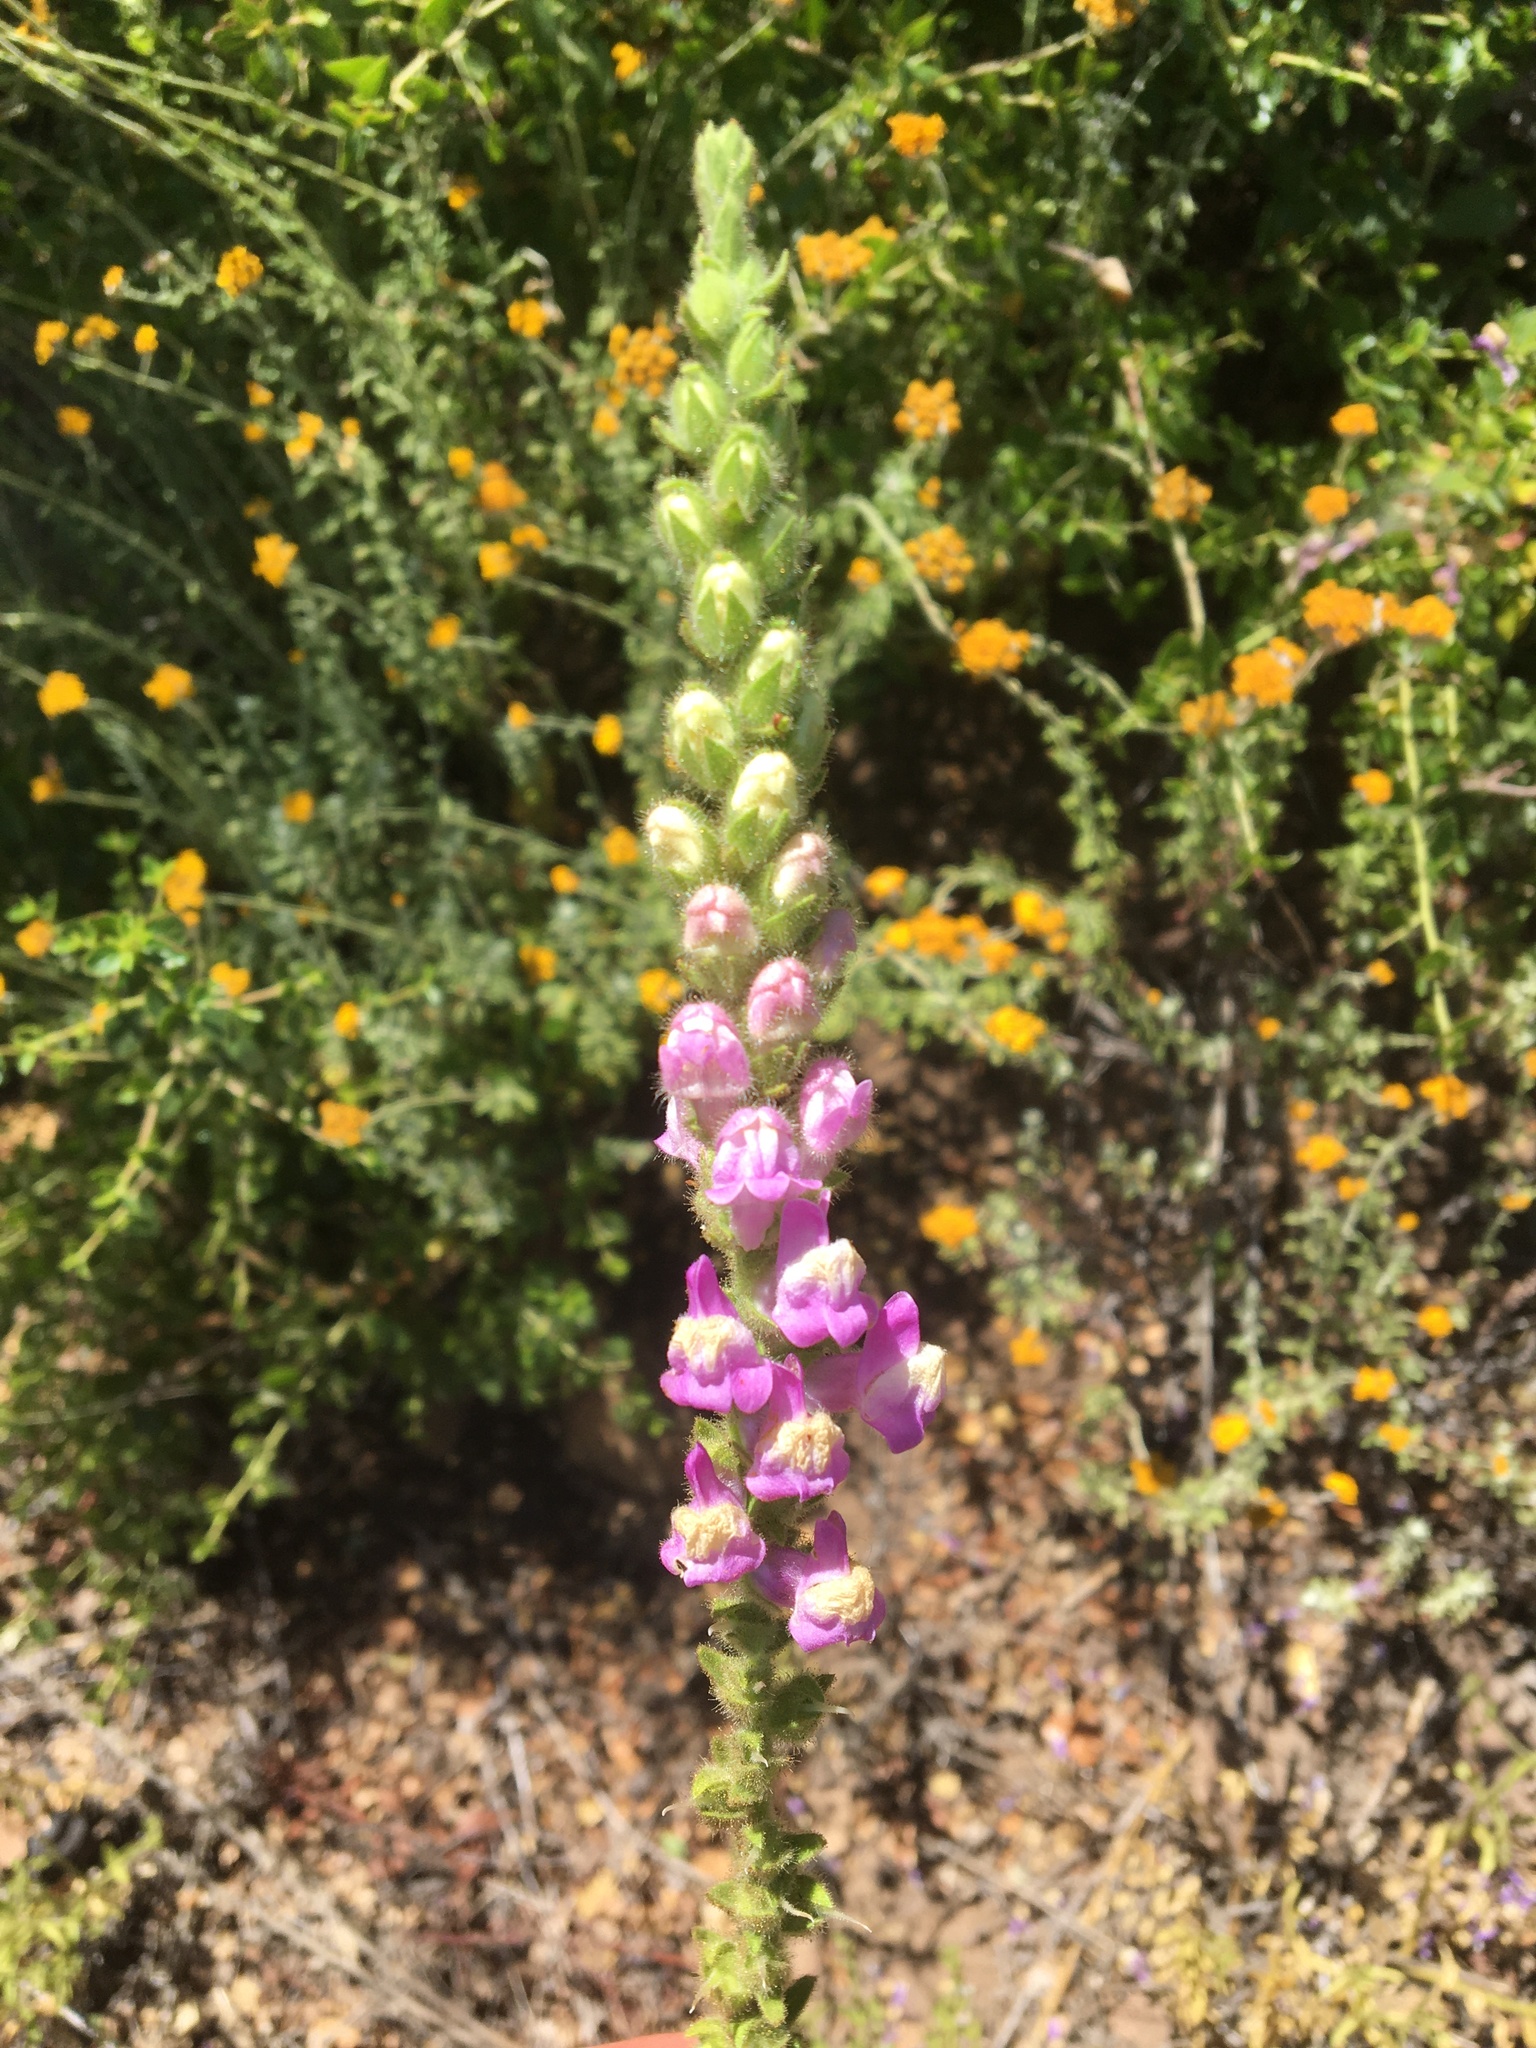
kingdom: Plantae
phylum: Tracheophyta
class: Magnoliopsida
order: Lamiales
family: Plantaginaceae
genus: Sairocarpus
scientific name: Sairocarpus multiflorus
